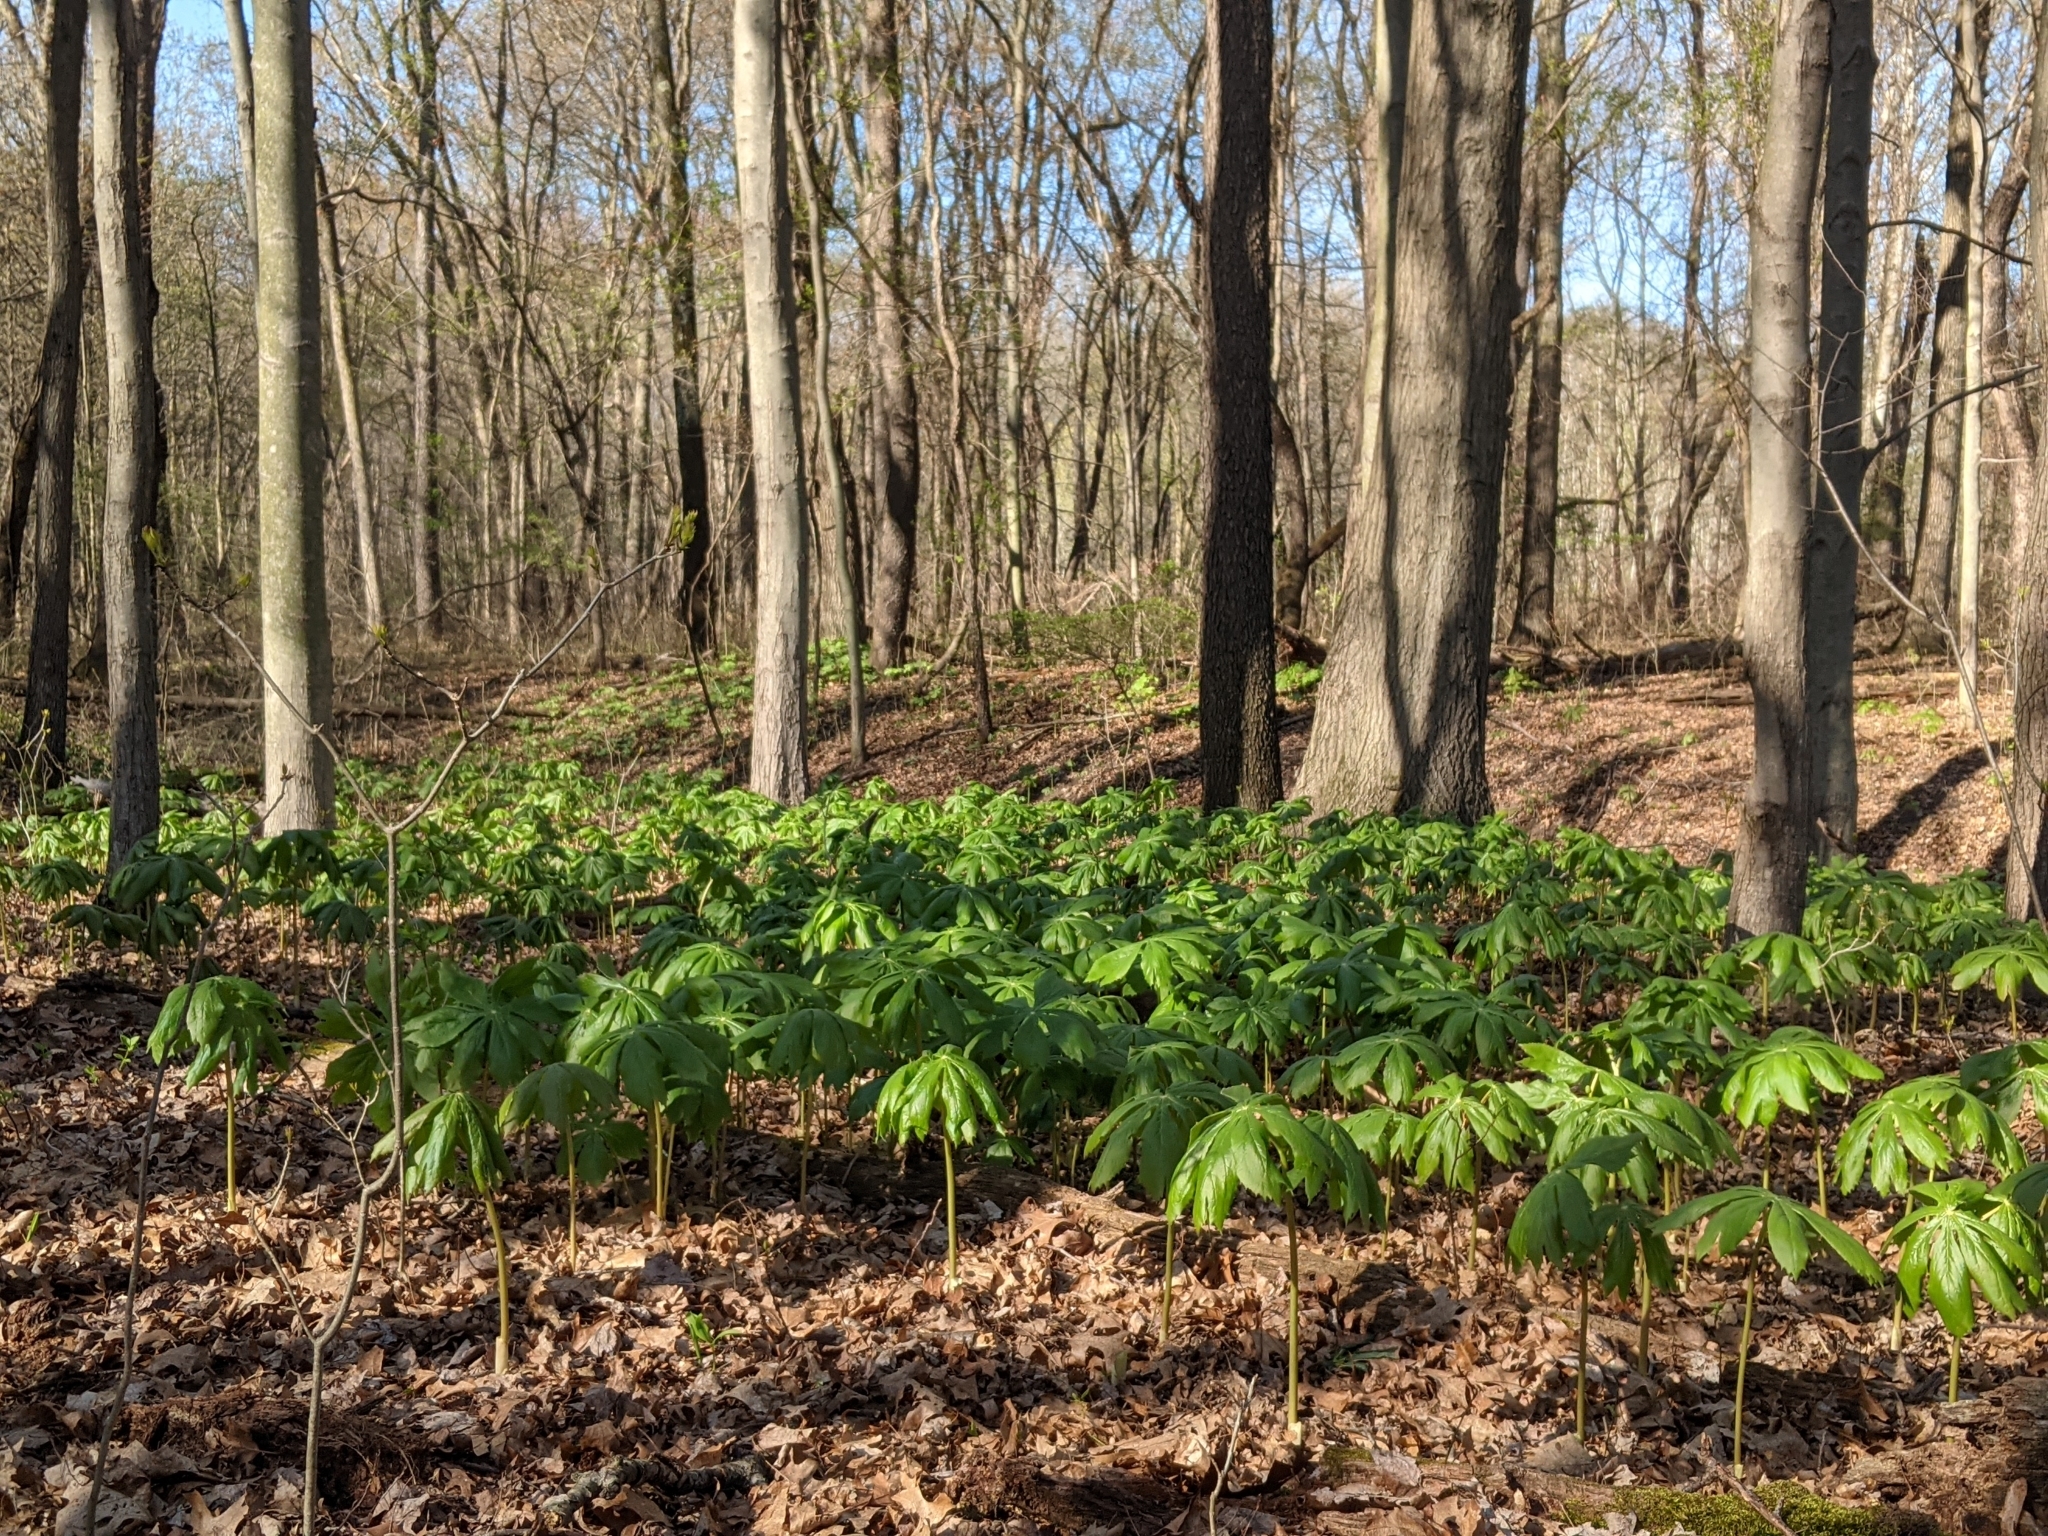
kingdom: Plantae
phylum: Tracheophyta
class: Magnoliopsida
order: Ranunculales
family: Berberidaceae
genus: Podophyllum
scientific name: Podophyllum peltatum
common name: Wild mandrake
